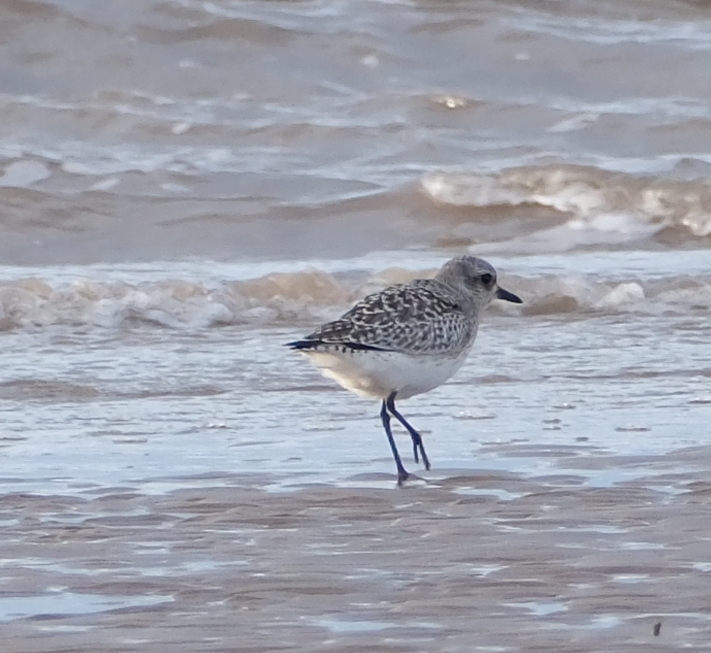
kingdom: Animalia
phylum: Chordata
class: Aves
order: Charadriiformes
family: Charadriidae
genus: Pluvialis
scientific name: Pluvialis squatarola
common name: Grey plover
